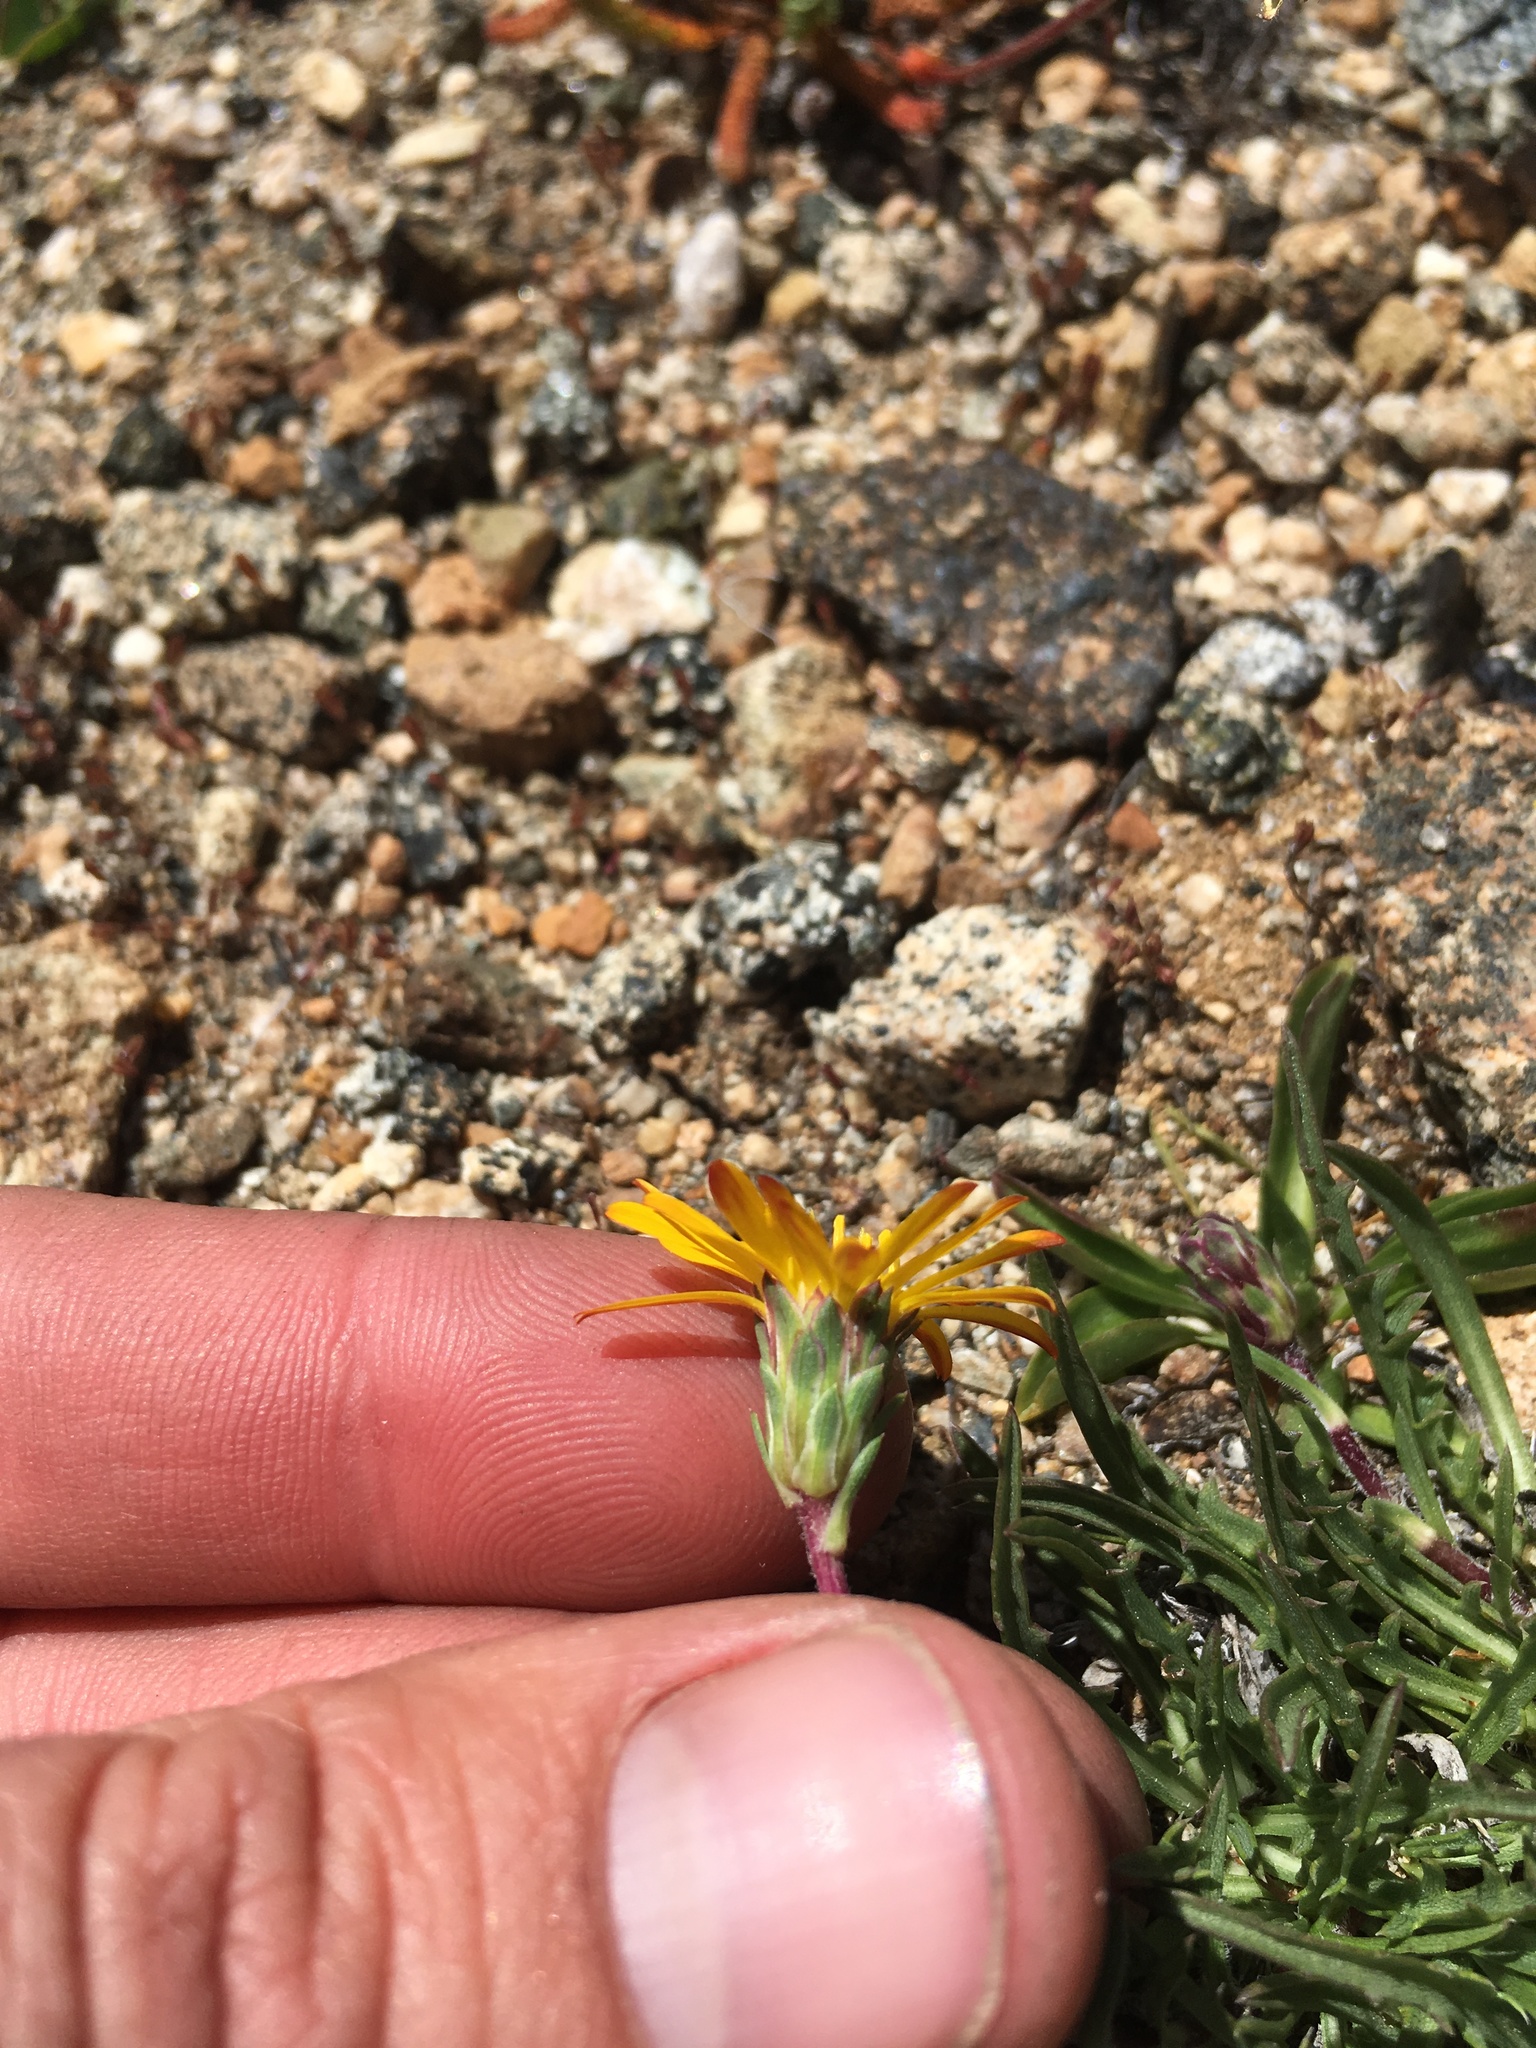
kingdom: Plantae
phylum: Tracheophyta
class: Magnoliopsida
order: Asterales
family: Asteraceae
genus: Pyrrocoma
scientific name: Pyrrocoma apargioides
